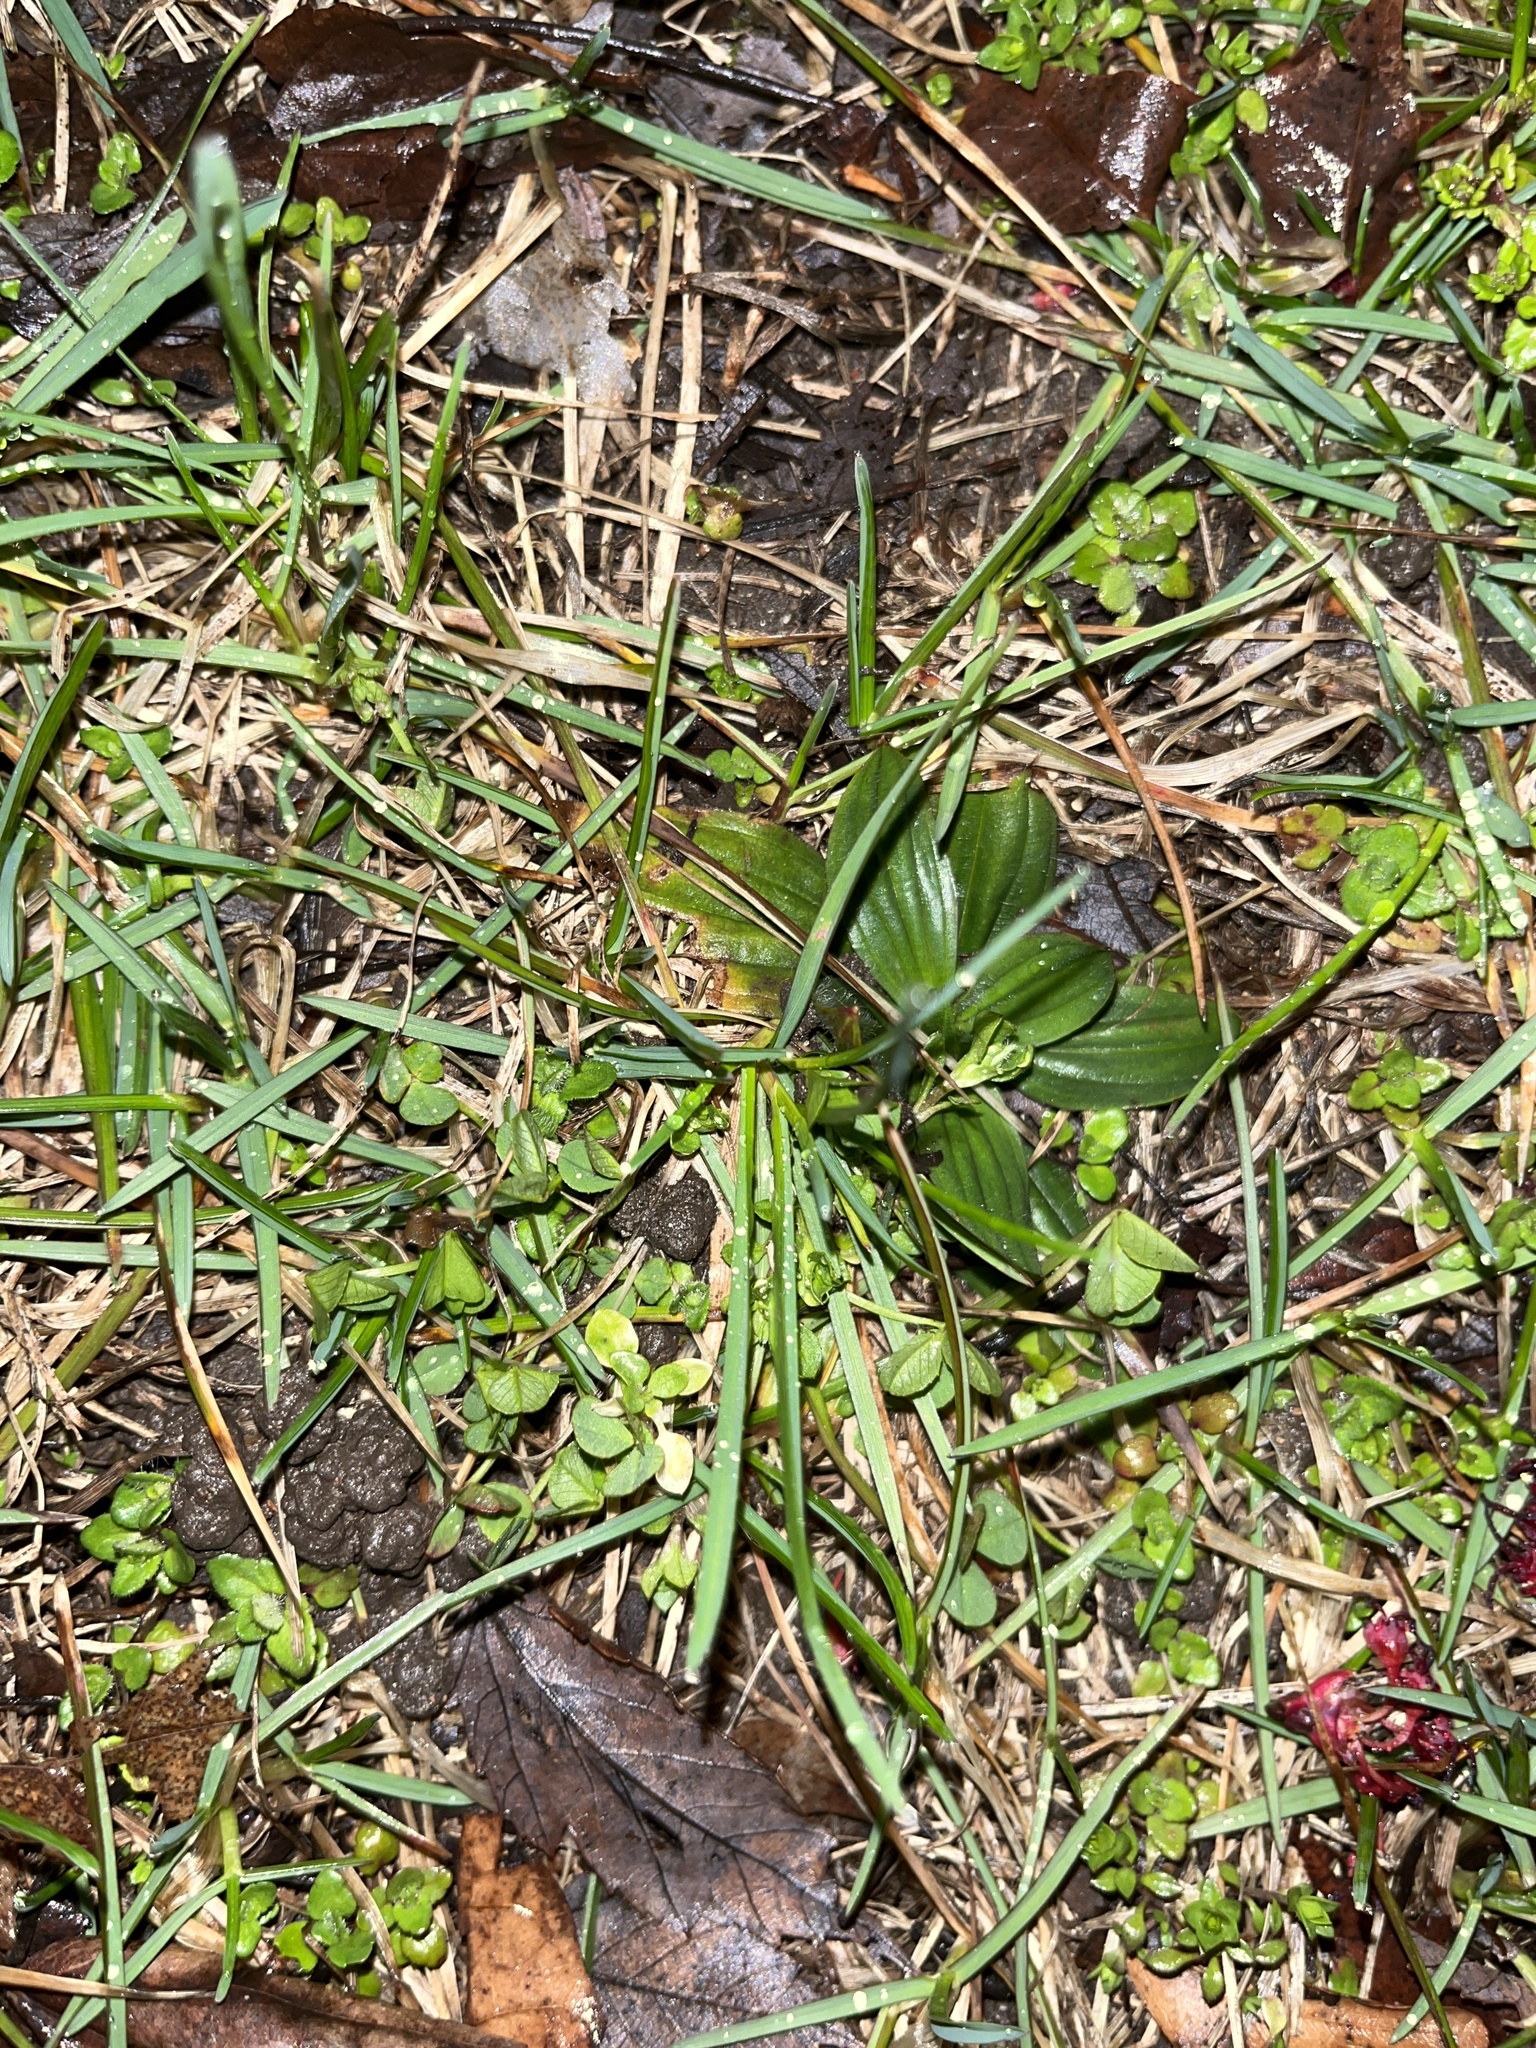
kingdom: Plantae
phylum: Tracheophyta
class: Magnoliopsida
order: Lamiales
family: Plantaginaceae
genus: Plantago
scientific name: Plantago lanceolata
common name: Ribwort plantain
